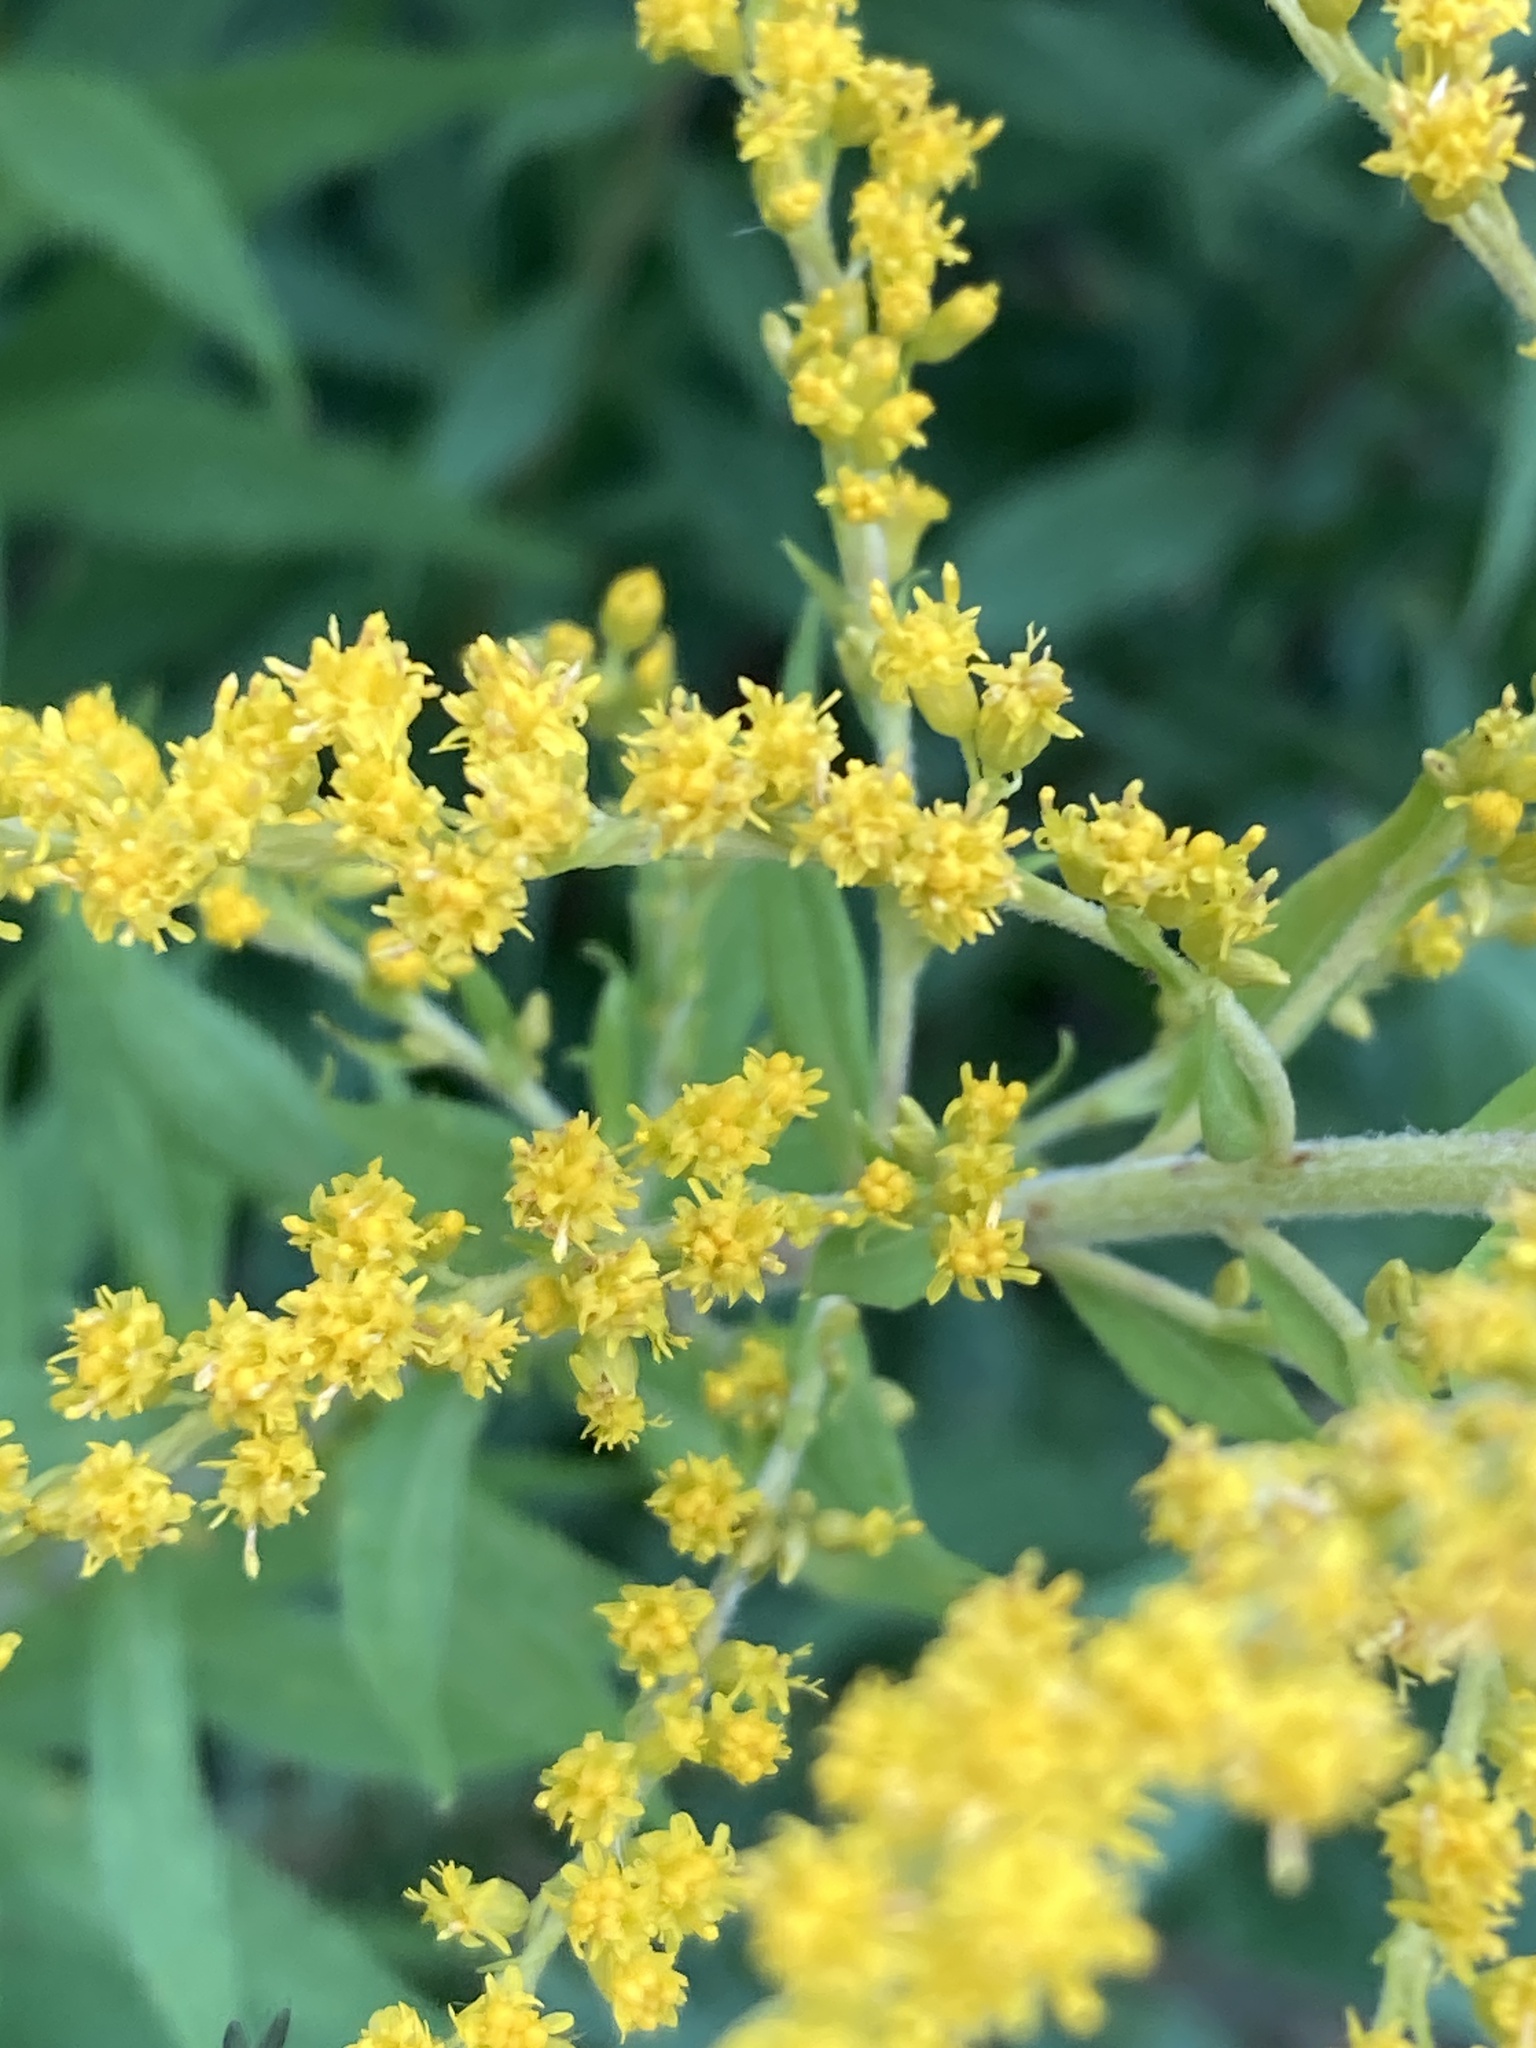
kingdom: Plantae
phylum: Tracheophyta
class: Magnoliopsida
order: Asterales
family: Asteraceae
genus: Solidago
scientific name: Solidago canadensis
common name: Canada goldenrod
